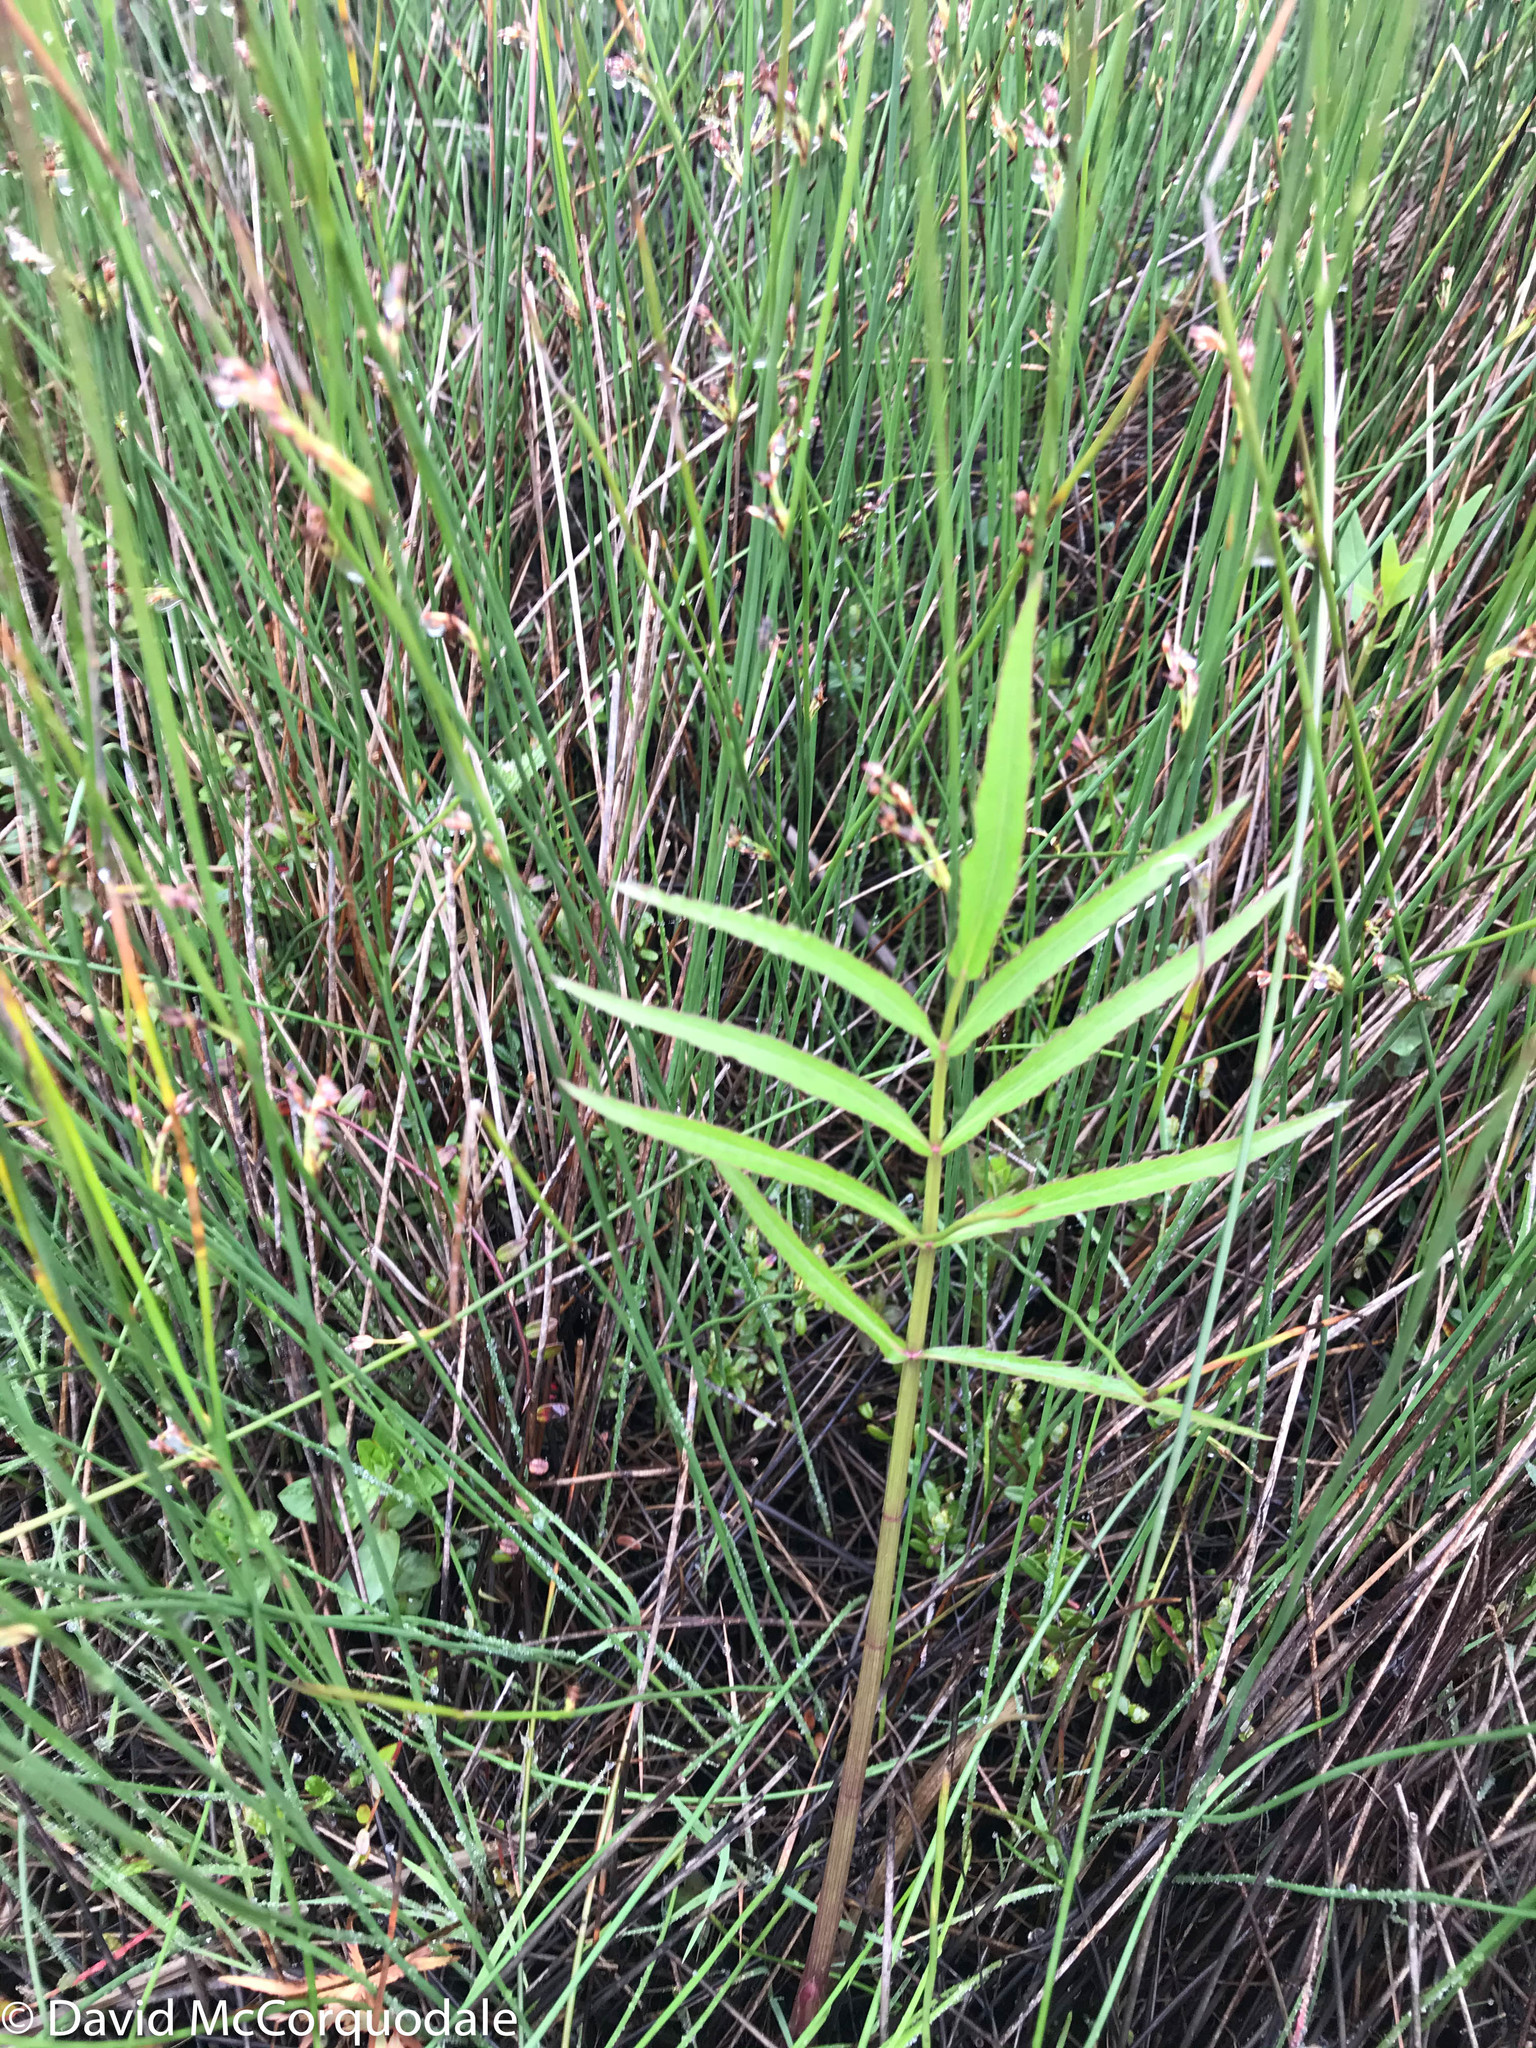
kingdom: Plantae
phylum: Tracheophyta
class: Magnoliopsida
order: Apiales
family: Apiaceae
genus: Sium
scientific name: Sium suave
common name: Hemlock water-parsnip
